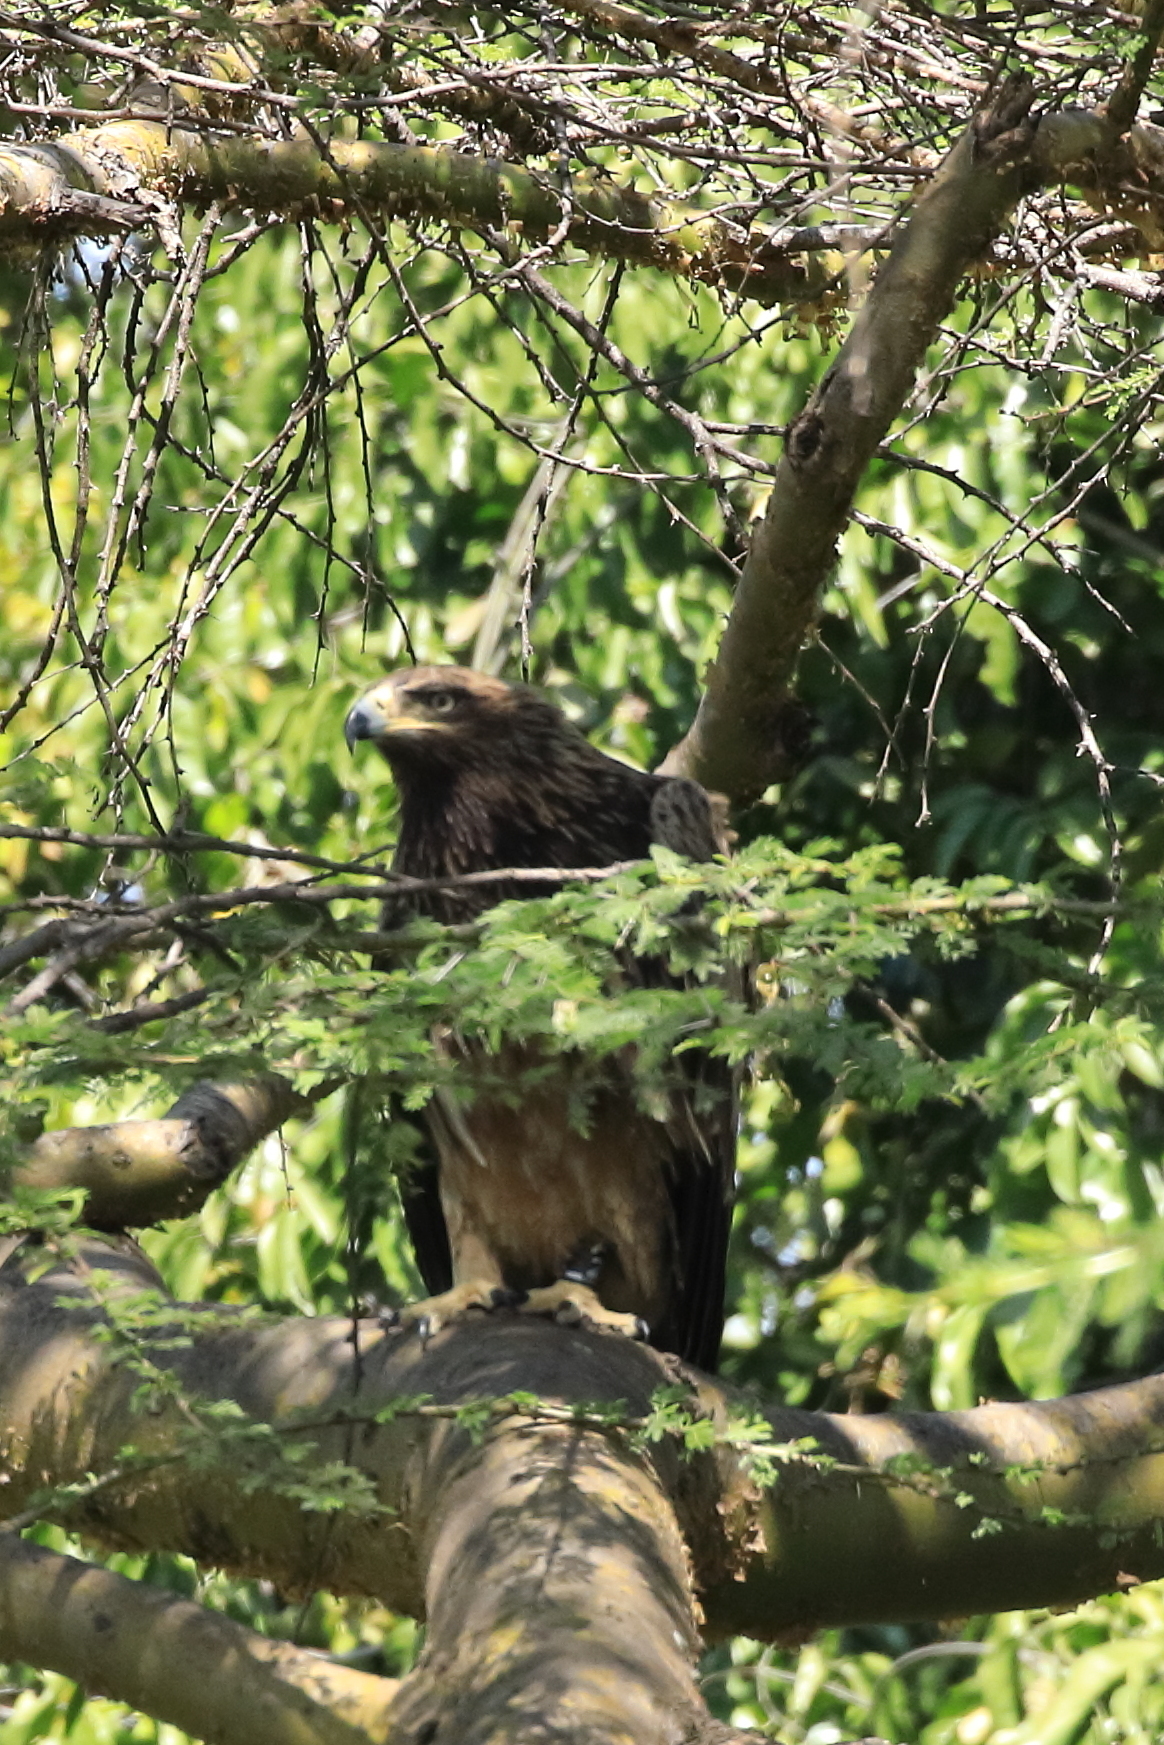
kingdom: Animalia
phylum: Chordata
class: Aves
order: Accipitriformes
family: Accipitridae
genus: Aquila
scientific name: Aquila rapax
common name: Tawny eagle
